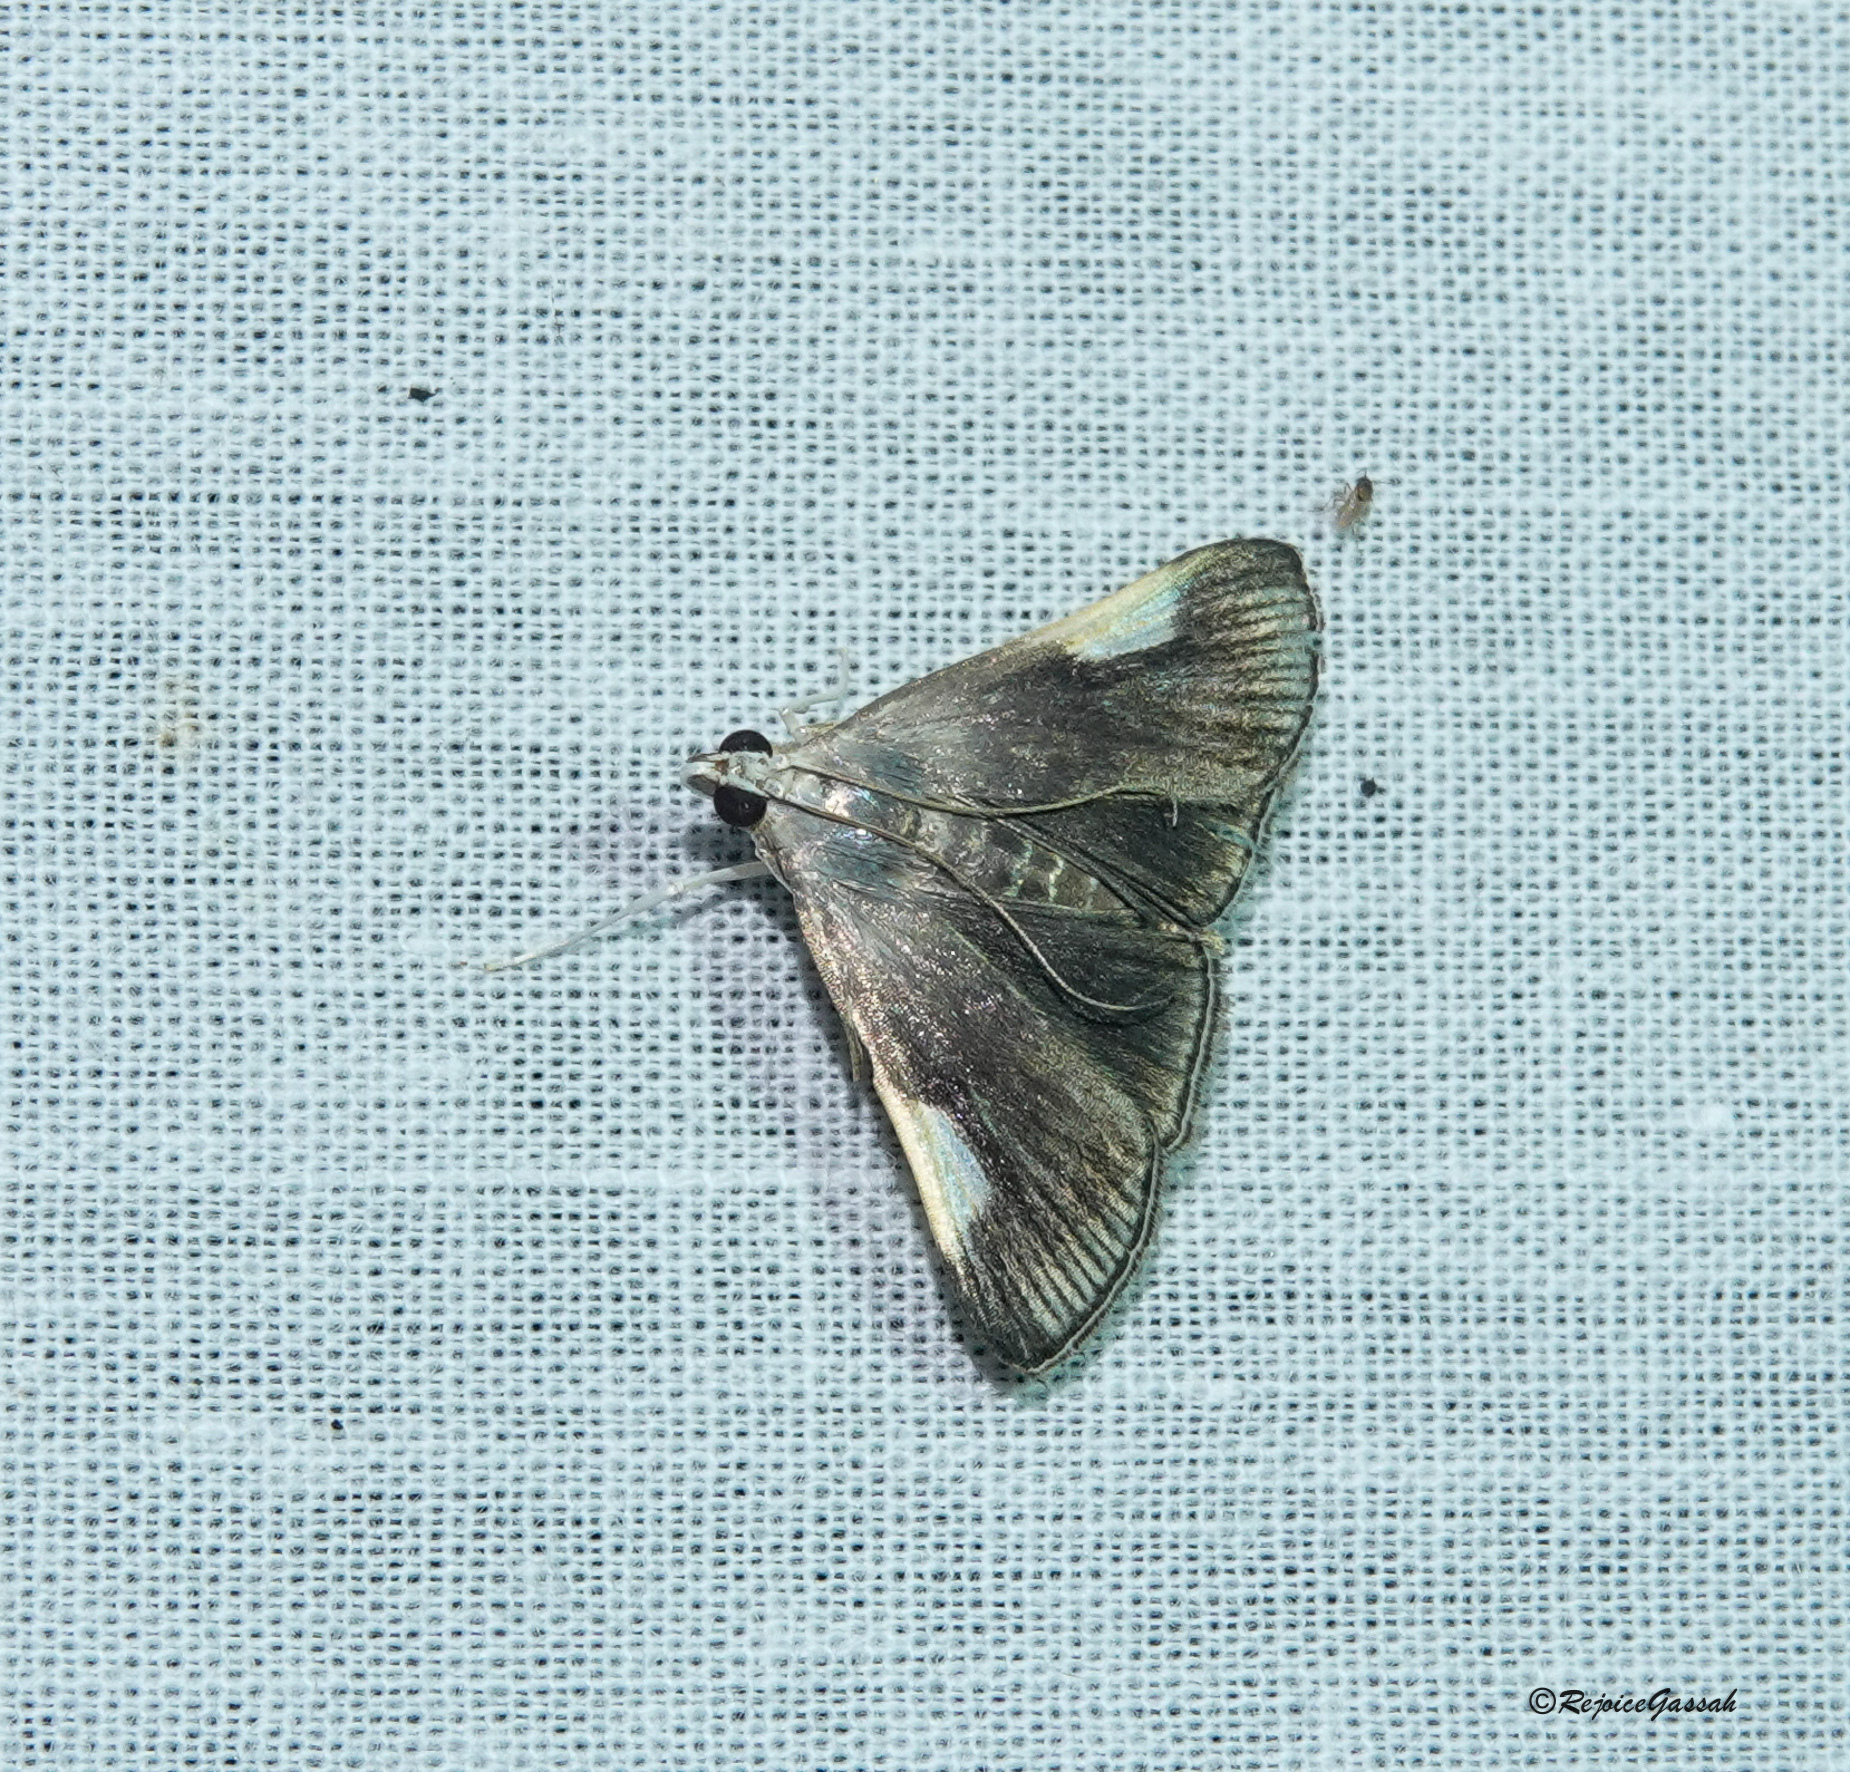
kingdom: Animalia
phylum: Arthropoda
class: Insecta
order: Lepidoptera
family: Crambidae
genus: Tyspanodes
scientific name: Tyspanodes
